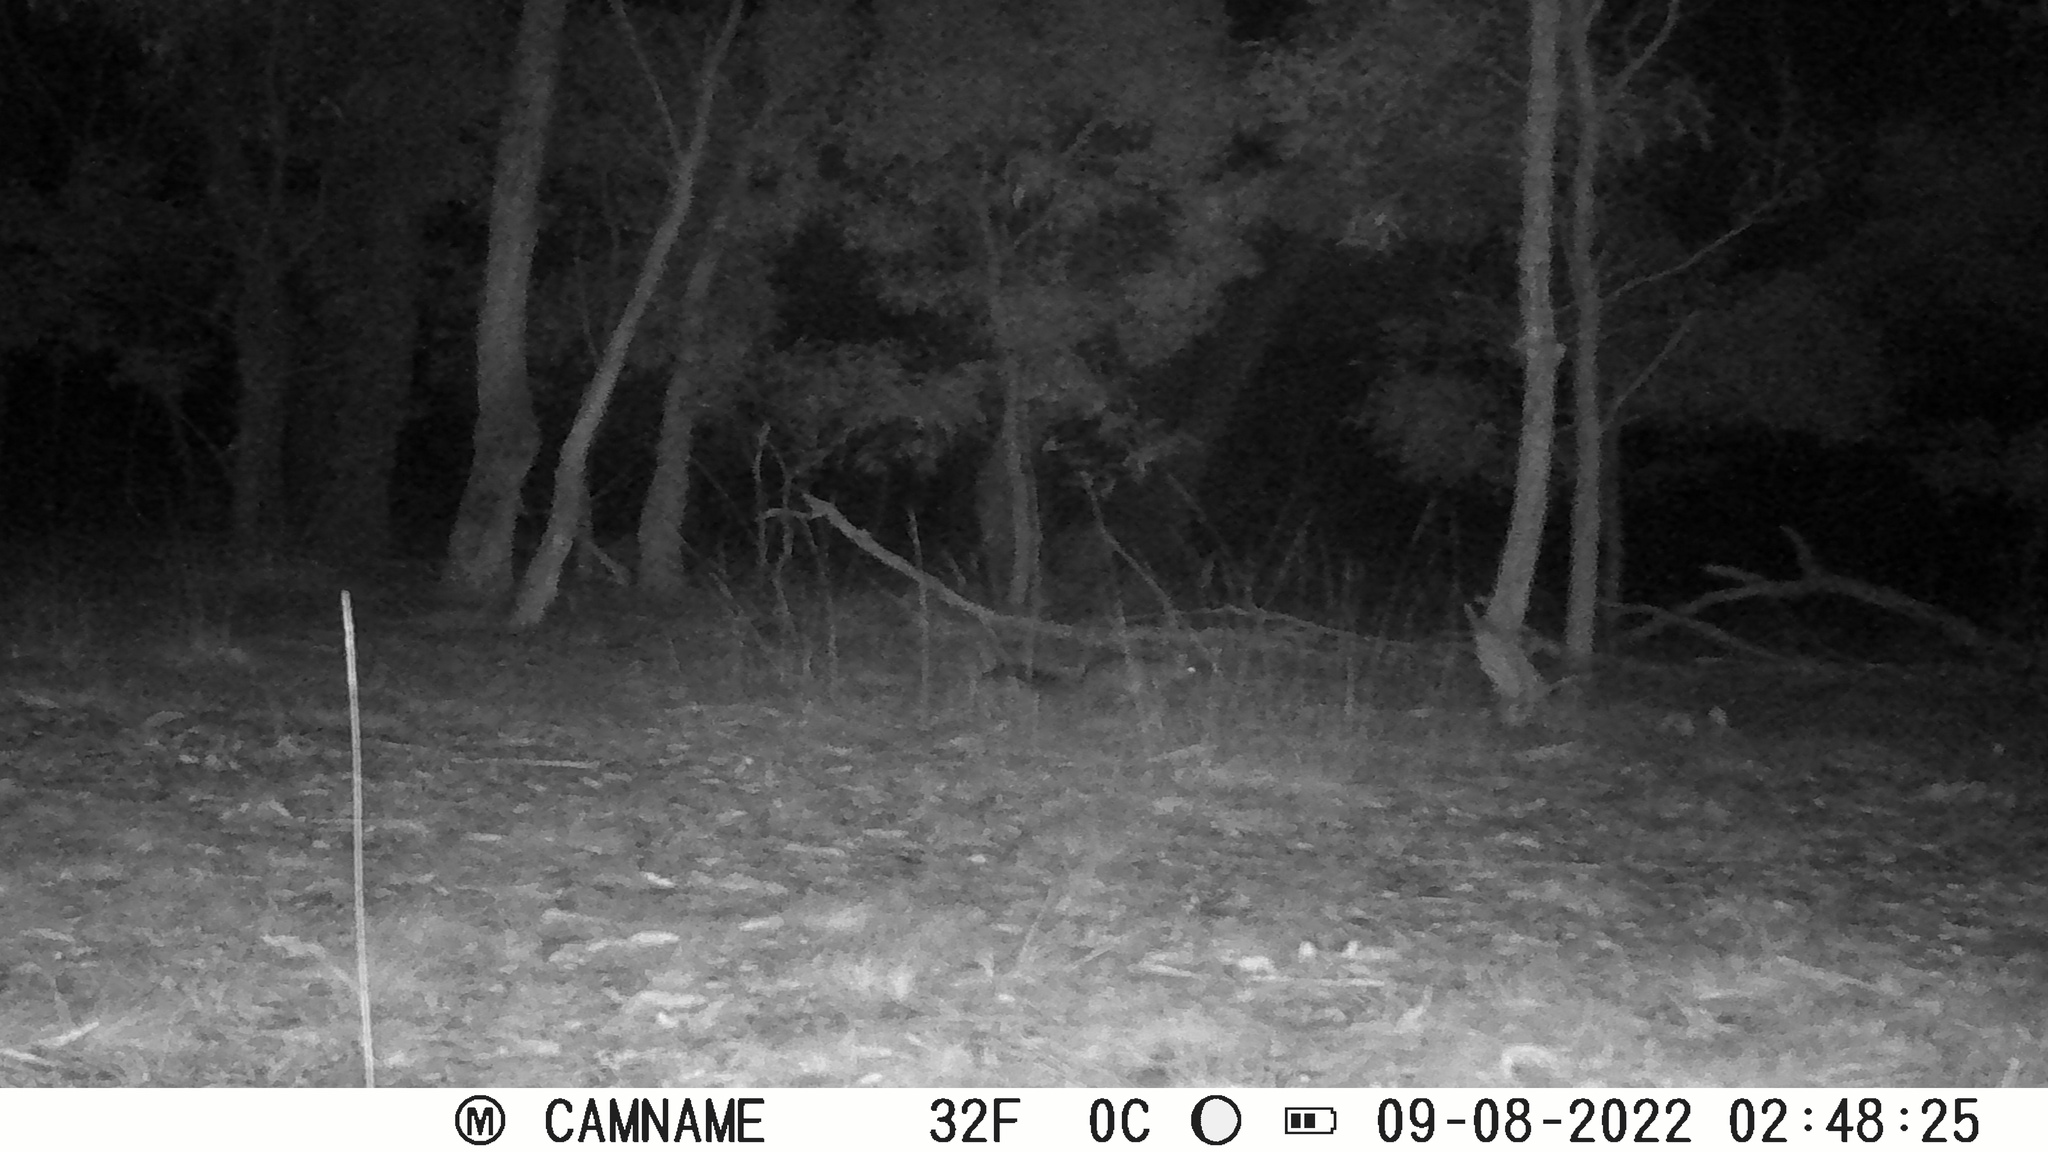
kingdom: Animalia
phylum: Chordata
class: Mammalia
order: Diprotodontia
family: Phalangeridae
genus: Trichosurus
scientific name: Trichosurus vulpecula
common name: Common brushtail
